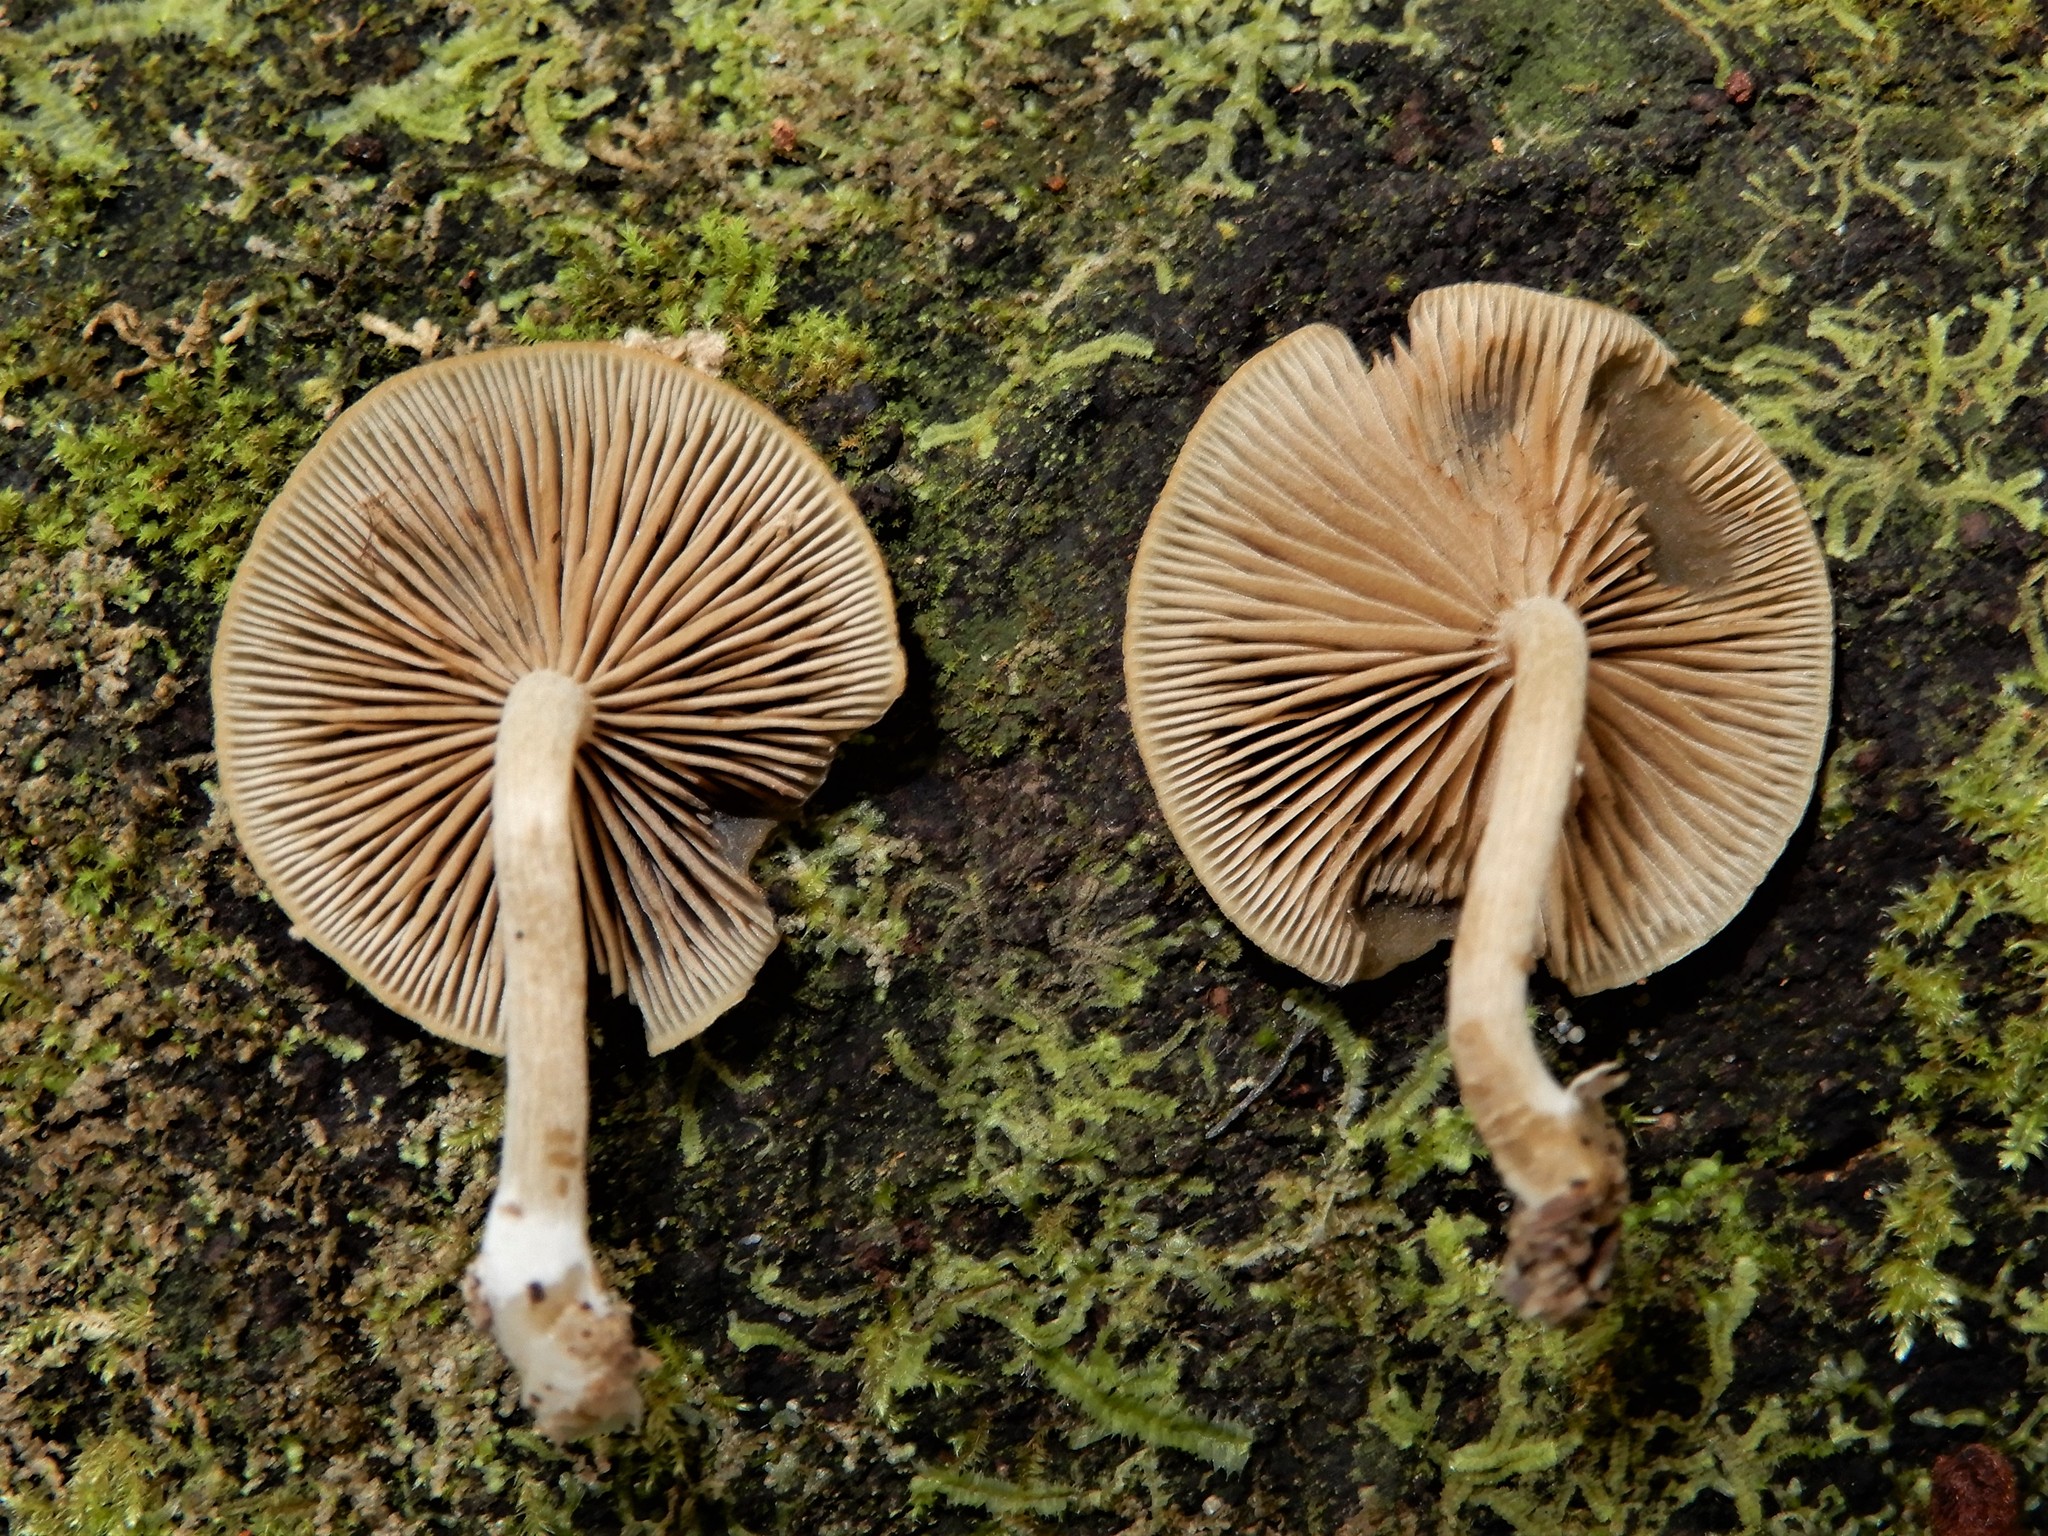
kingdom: Fungi
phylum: Basidiomycota
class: Agaricomycetes
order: Agaricales
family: Crepidotaceae
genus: Simocybe
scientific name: Simocybe serrulata
